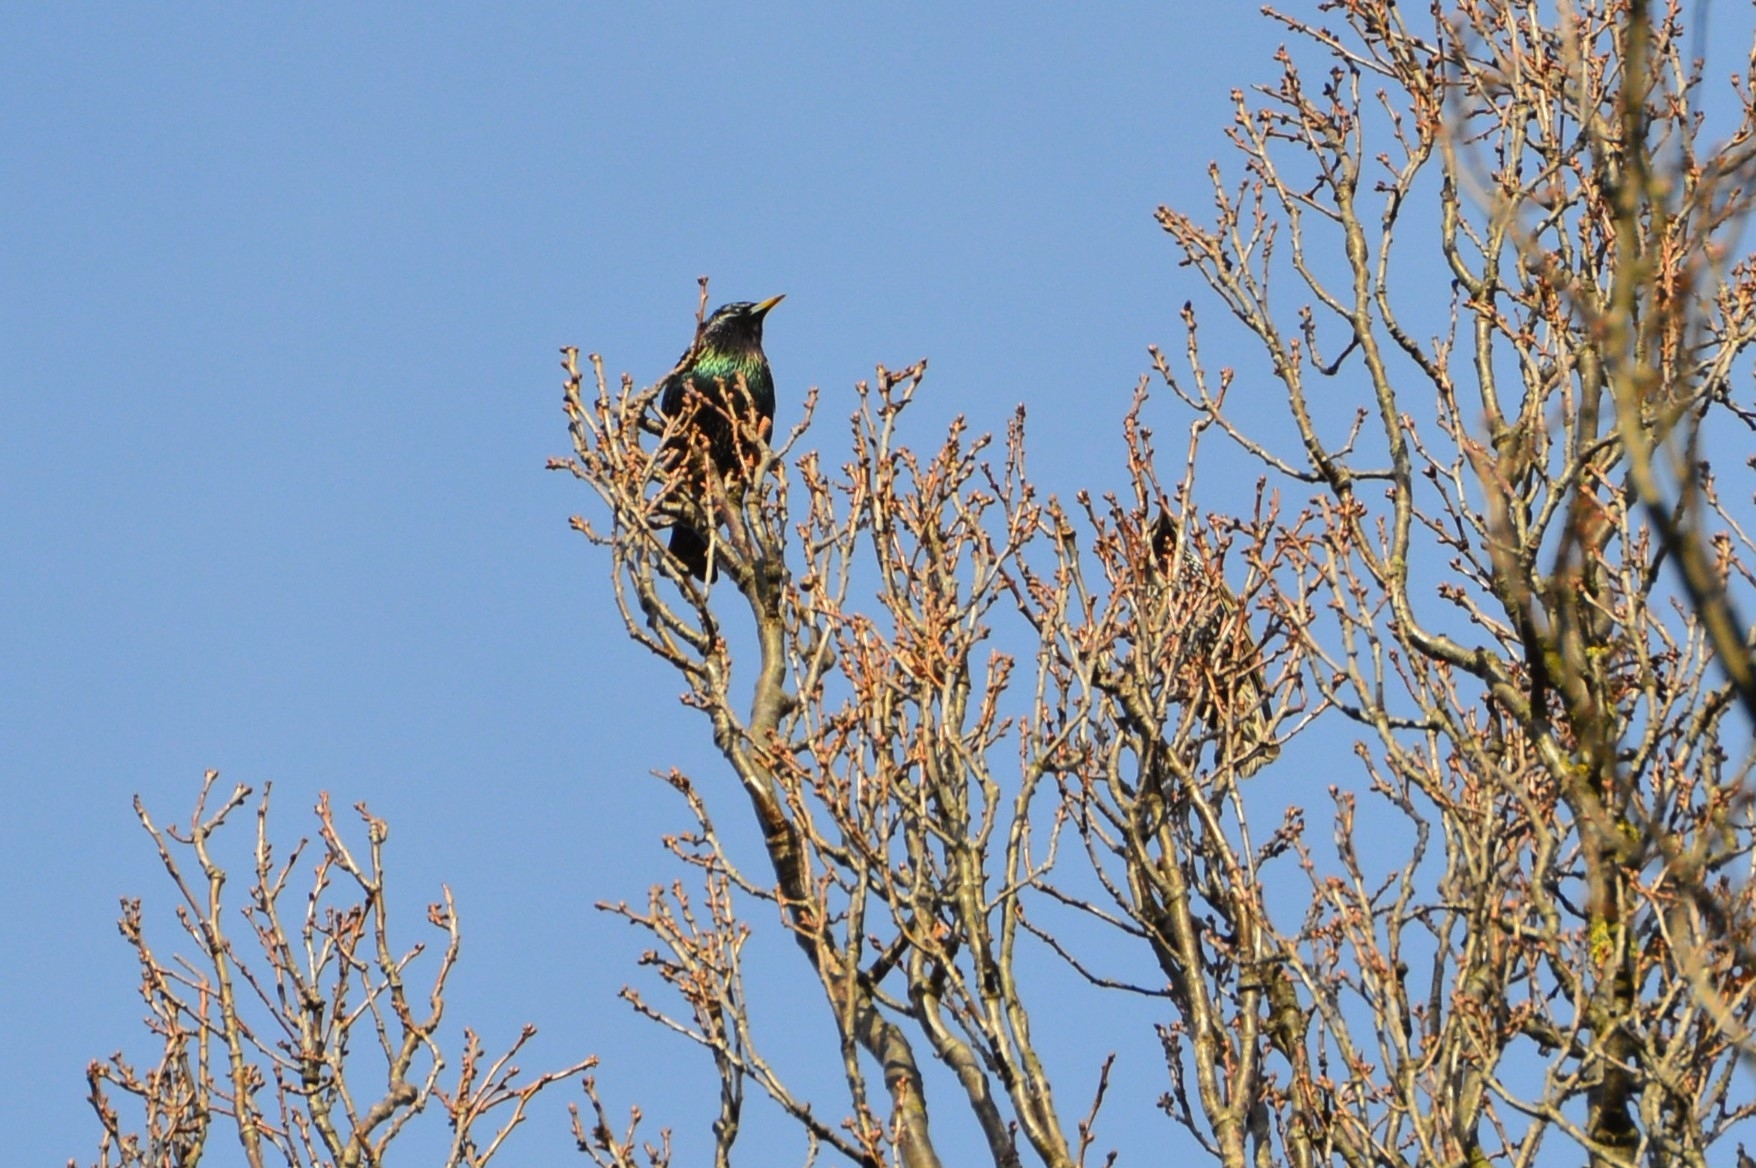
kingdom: Animalia
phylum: Chordata
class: Aves
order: Passeriformes
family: Sturnidae
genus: Sturnus
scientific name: Sturnus vulgaris
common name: Common starling
